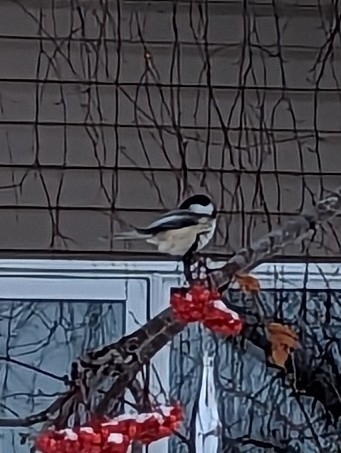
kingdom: Animalia
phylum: Chordata
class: Aves
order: Passeriformes
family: Paridae
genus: Poecile
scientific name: Poecile atricapillus
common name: Black-capped chickadee
